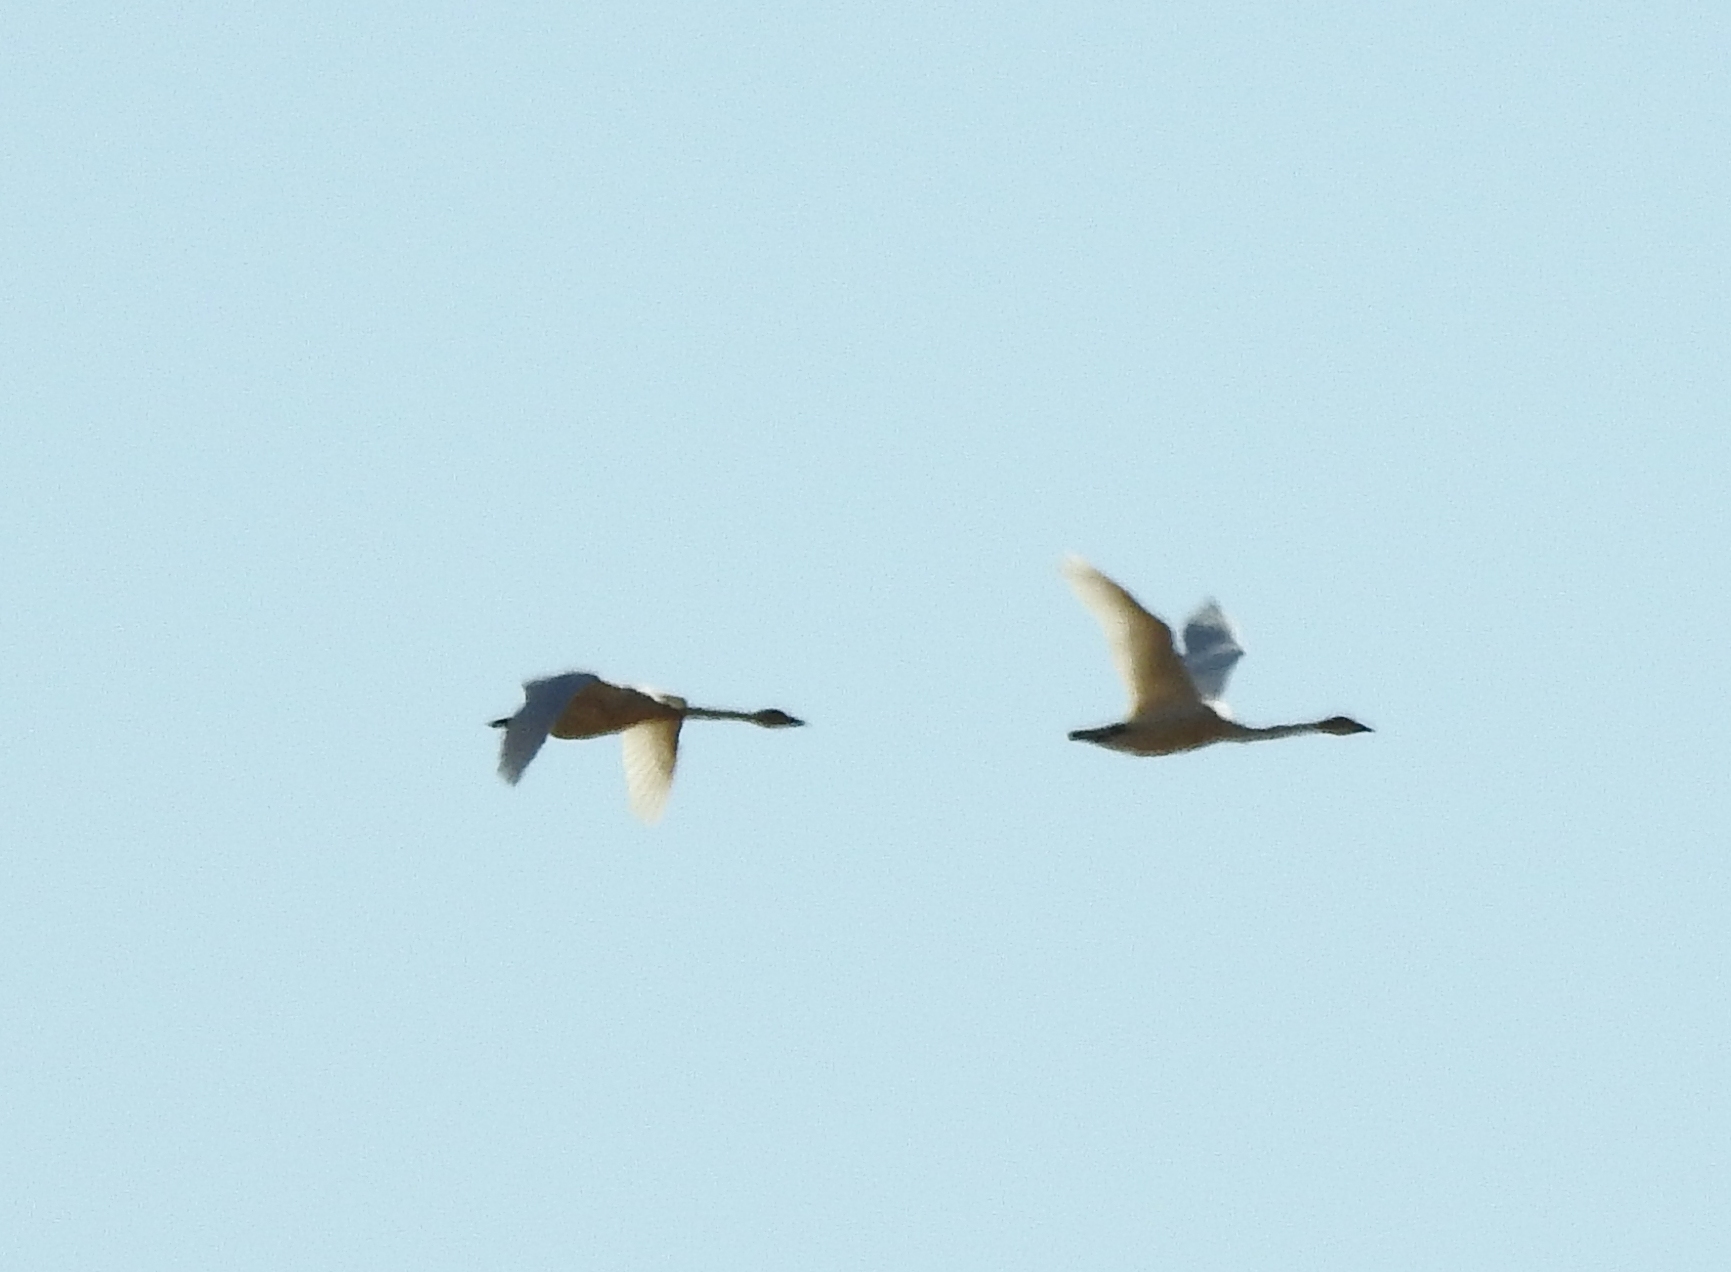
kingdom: Animalia
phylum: Chordata
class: Aves
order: Anseriformes
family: Anatidae
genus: Cygnus
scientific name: Cygnus cygnus
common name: Whooper swan
